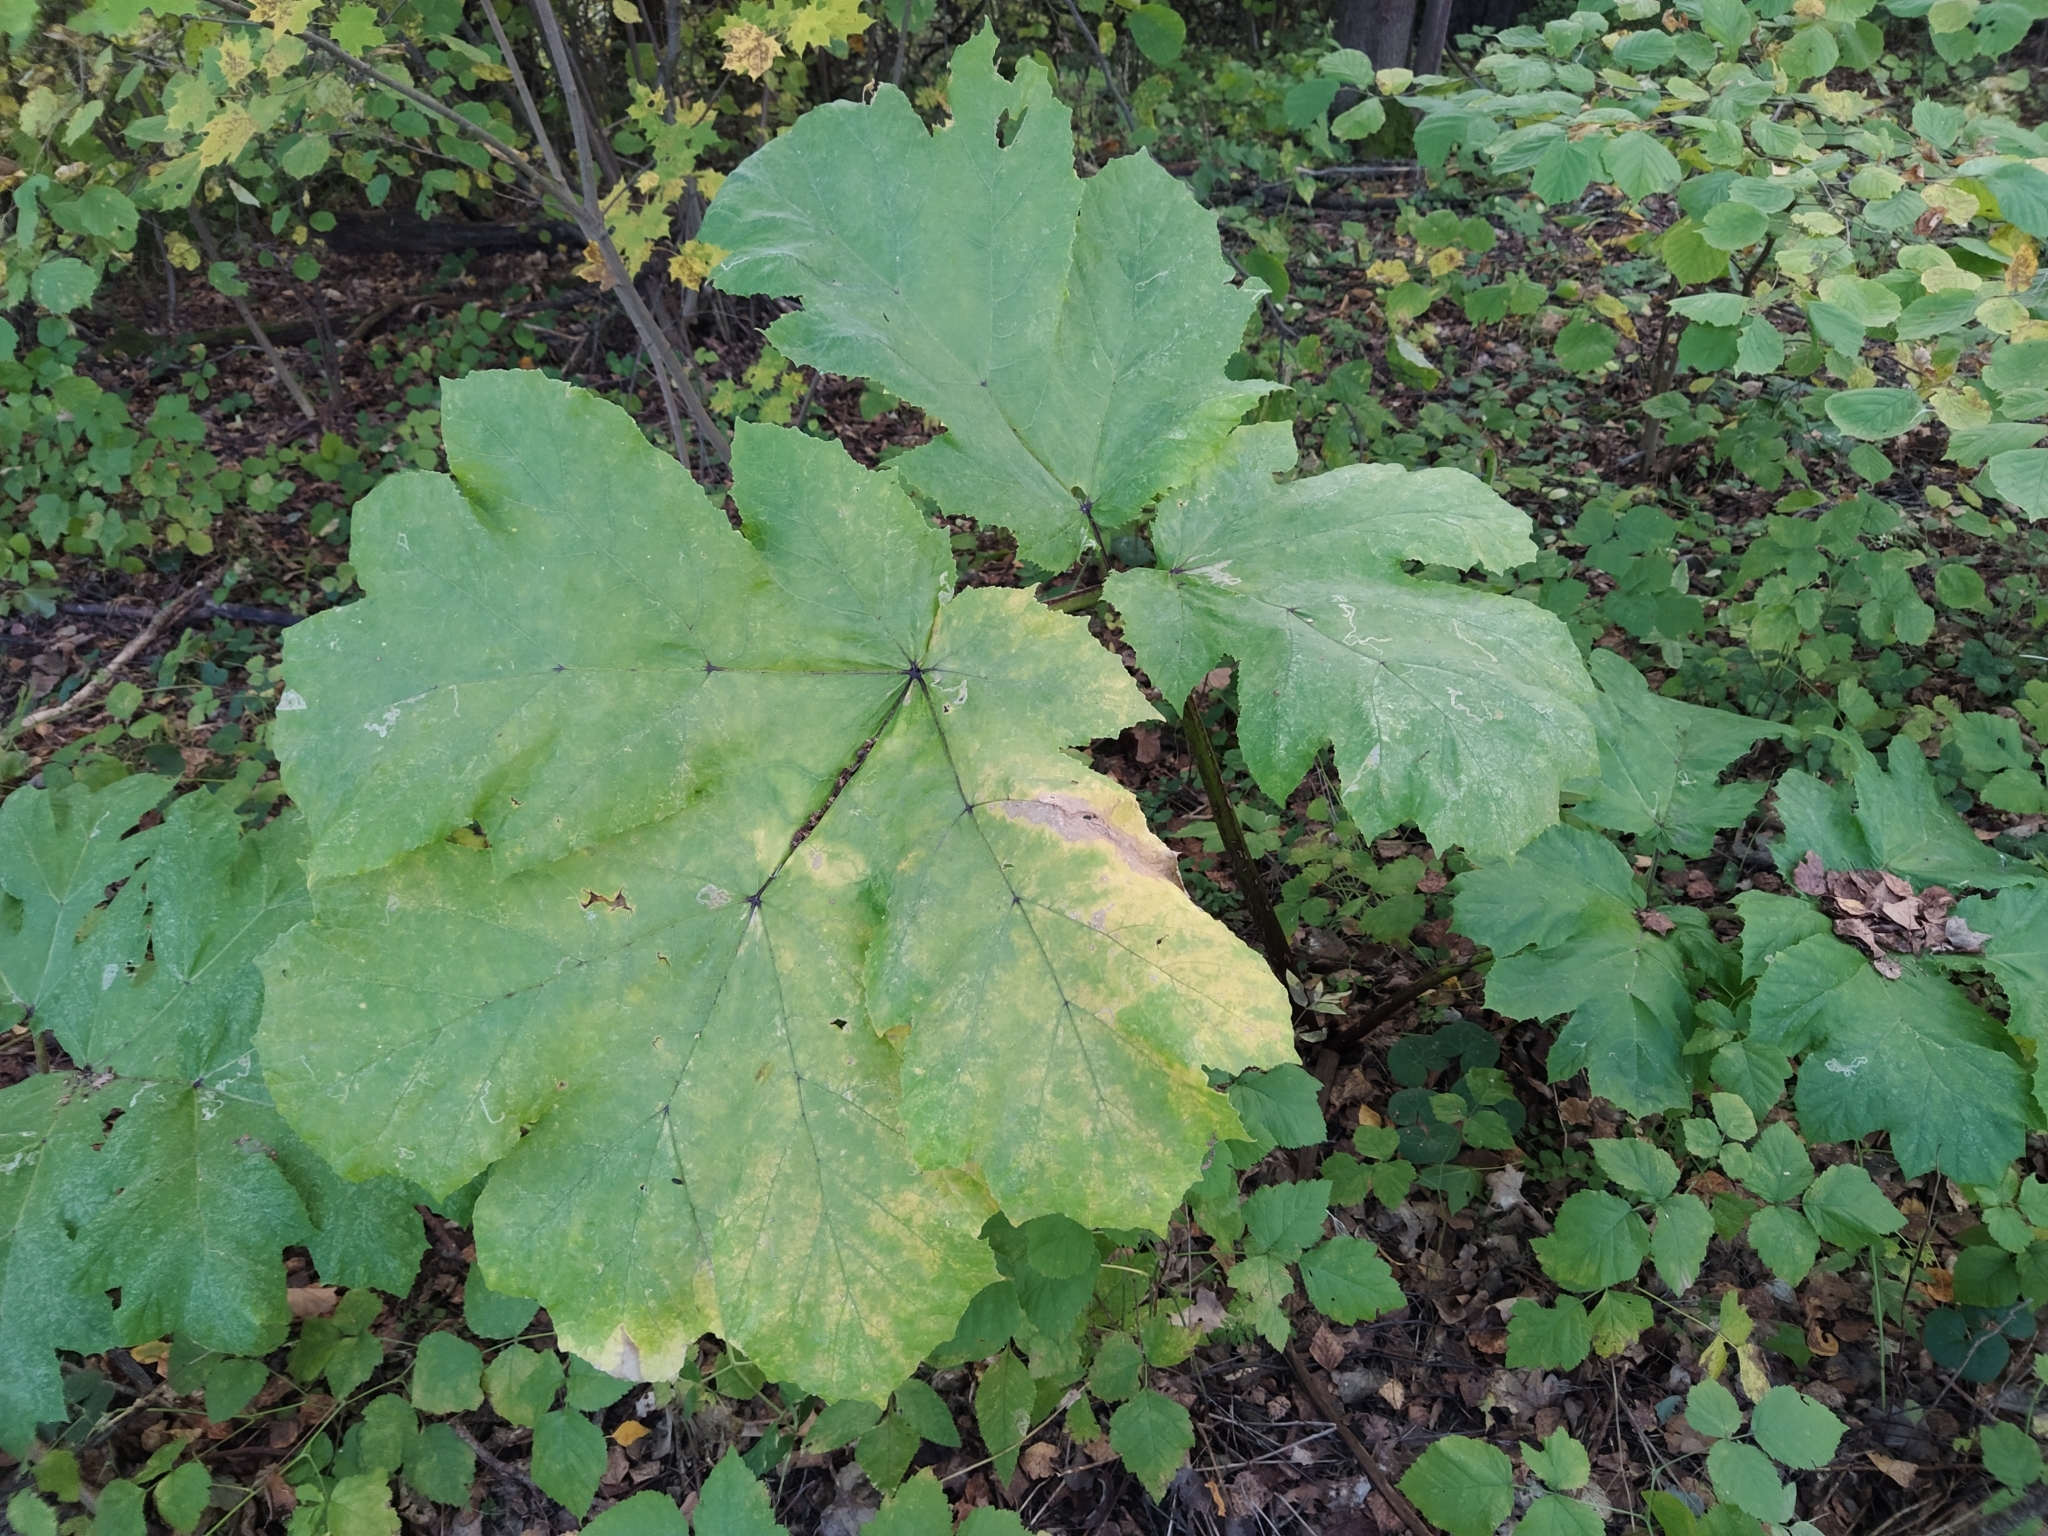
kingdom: Plantae
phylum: Tracheophyta
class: Magnoliopsida
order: Apiales
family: Apiaceae
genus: Heracleum
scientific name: Heracleum sosnowskyi
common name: Sosnowsky's hogweed
